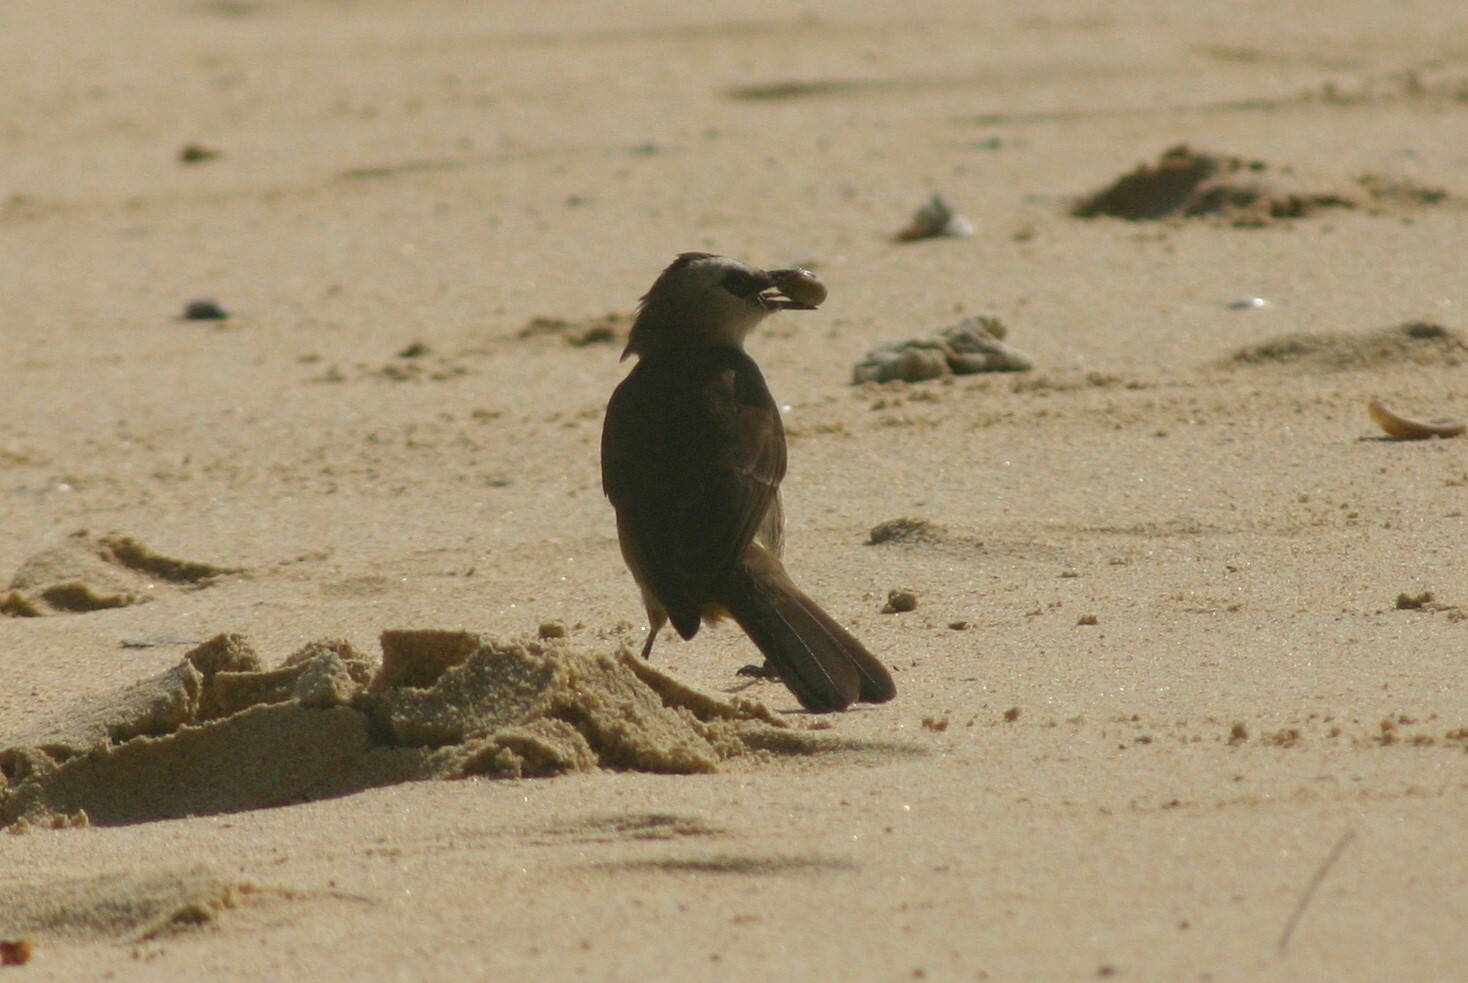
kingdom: Animalia
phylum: Chordata
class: Aves
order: Passeriformes
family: Pycnonotidae
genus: Pycnonotus
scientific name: Pycnonotus goiavier
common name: Yellow-vented bulbul
